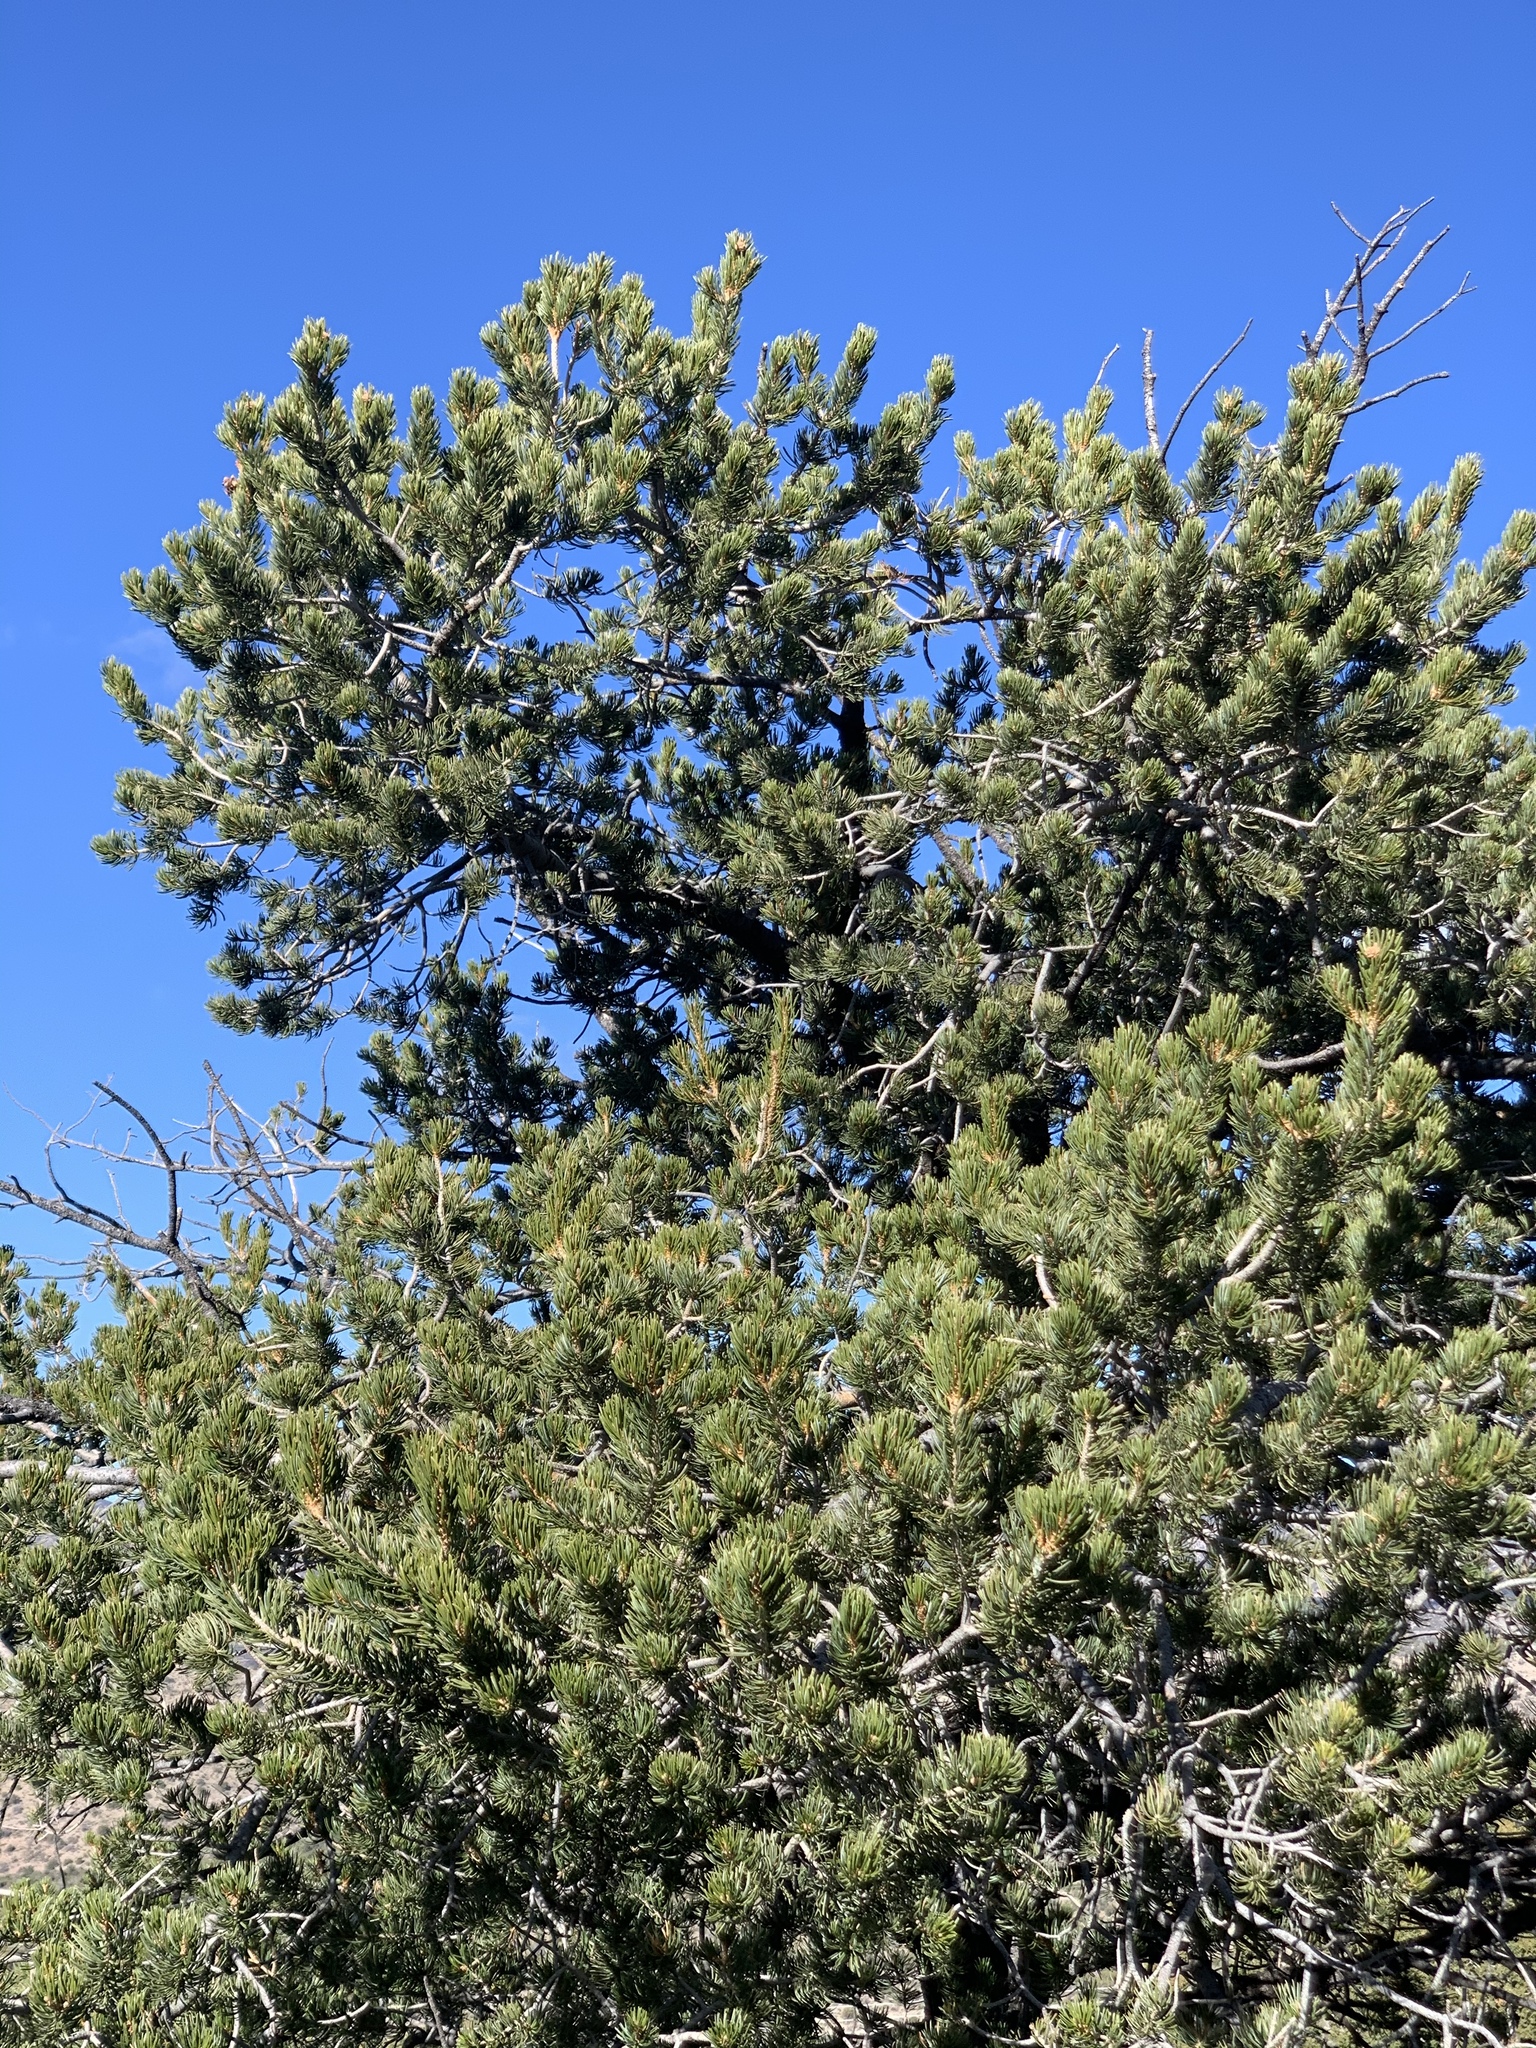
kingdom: Plantae
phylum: Tracheophyta
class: Pinopsida
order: Pinales
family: Pinaceae
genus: Pinus
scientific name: Pinus edulis
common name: Colorado pinyon
